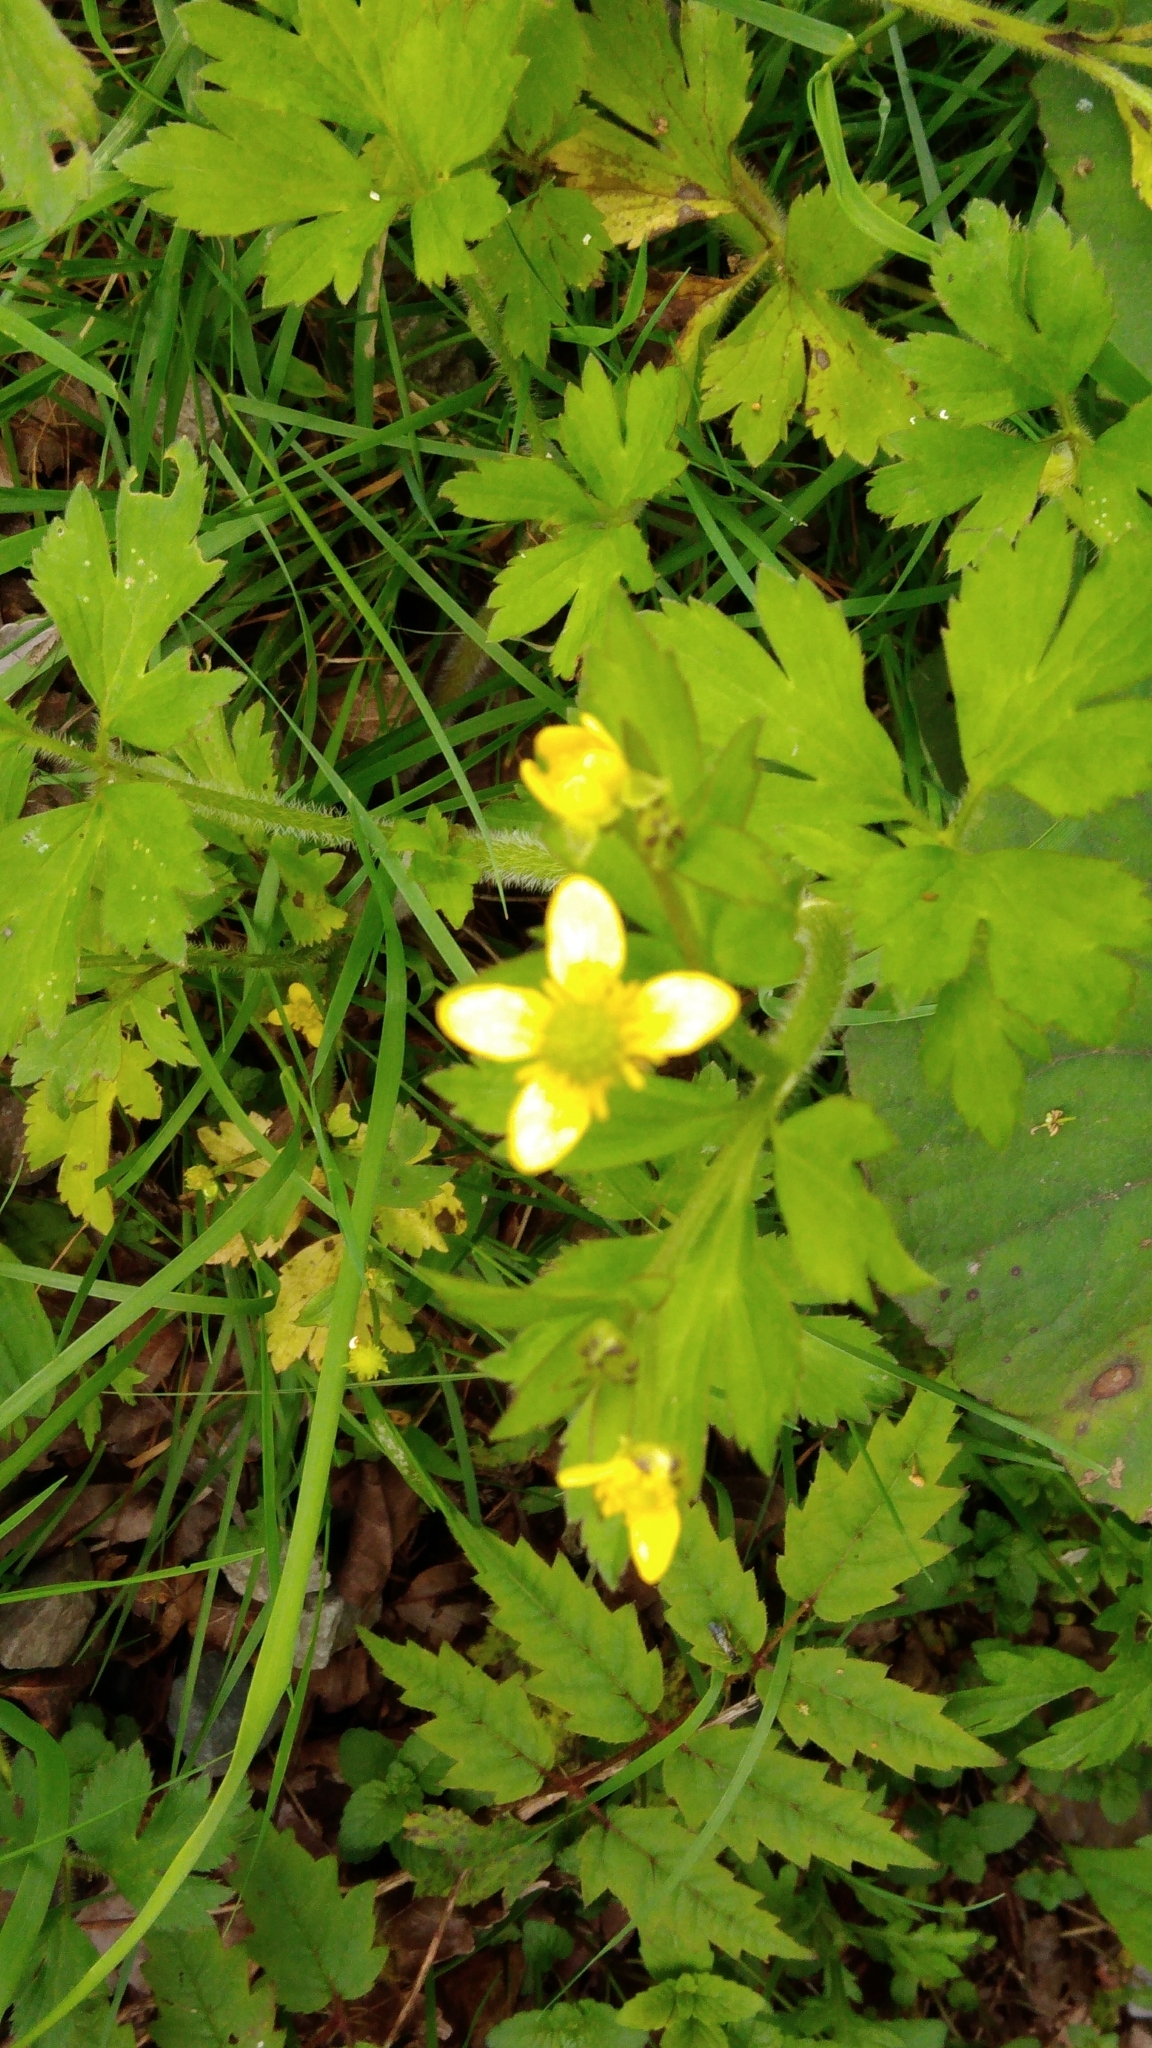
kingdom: Plantae
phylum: Tracheophyta
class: Magnoliopsida
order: Ranunculales
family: Ranunculaceae
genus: Ranunculus
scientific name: Ranunculus cantoniensis
